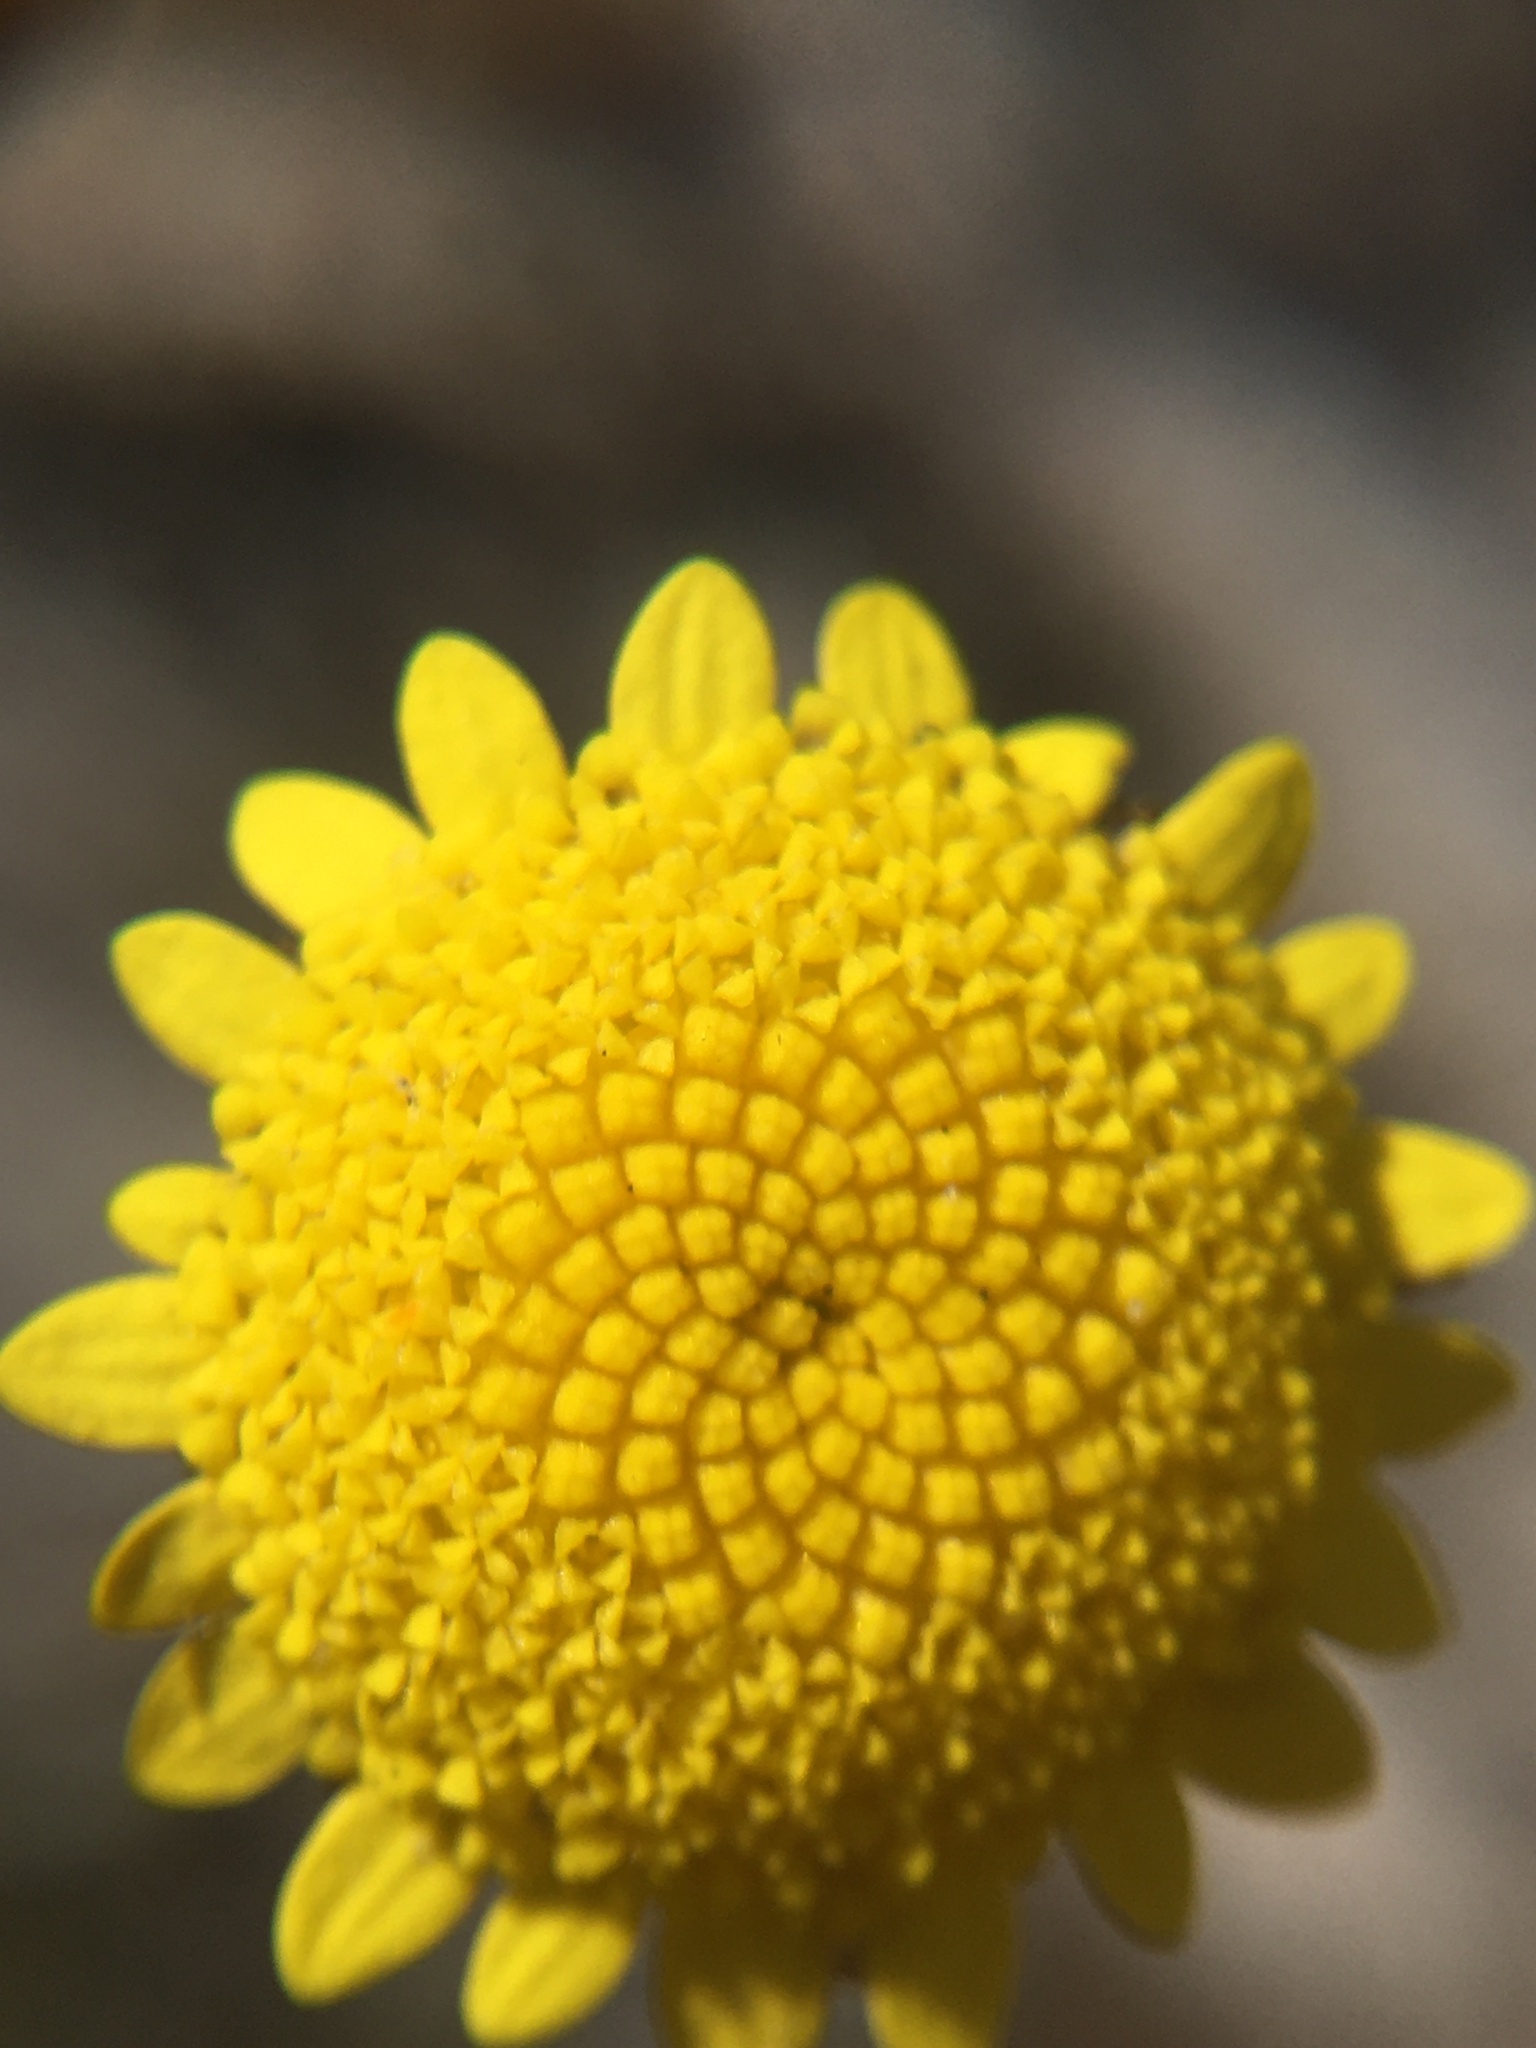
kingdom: Plantae
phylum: Tracheophyta
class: Magnoliopsida
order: Asterales
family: Asteraceae
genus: Cotula
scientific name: Cotula pruinosa
